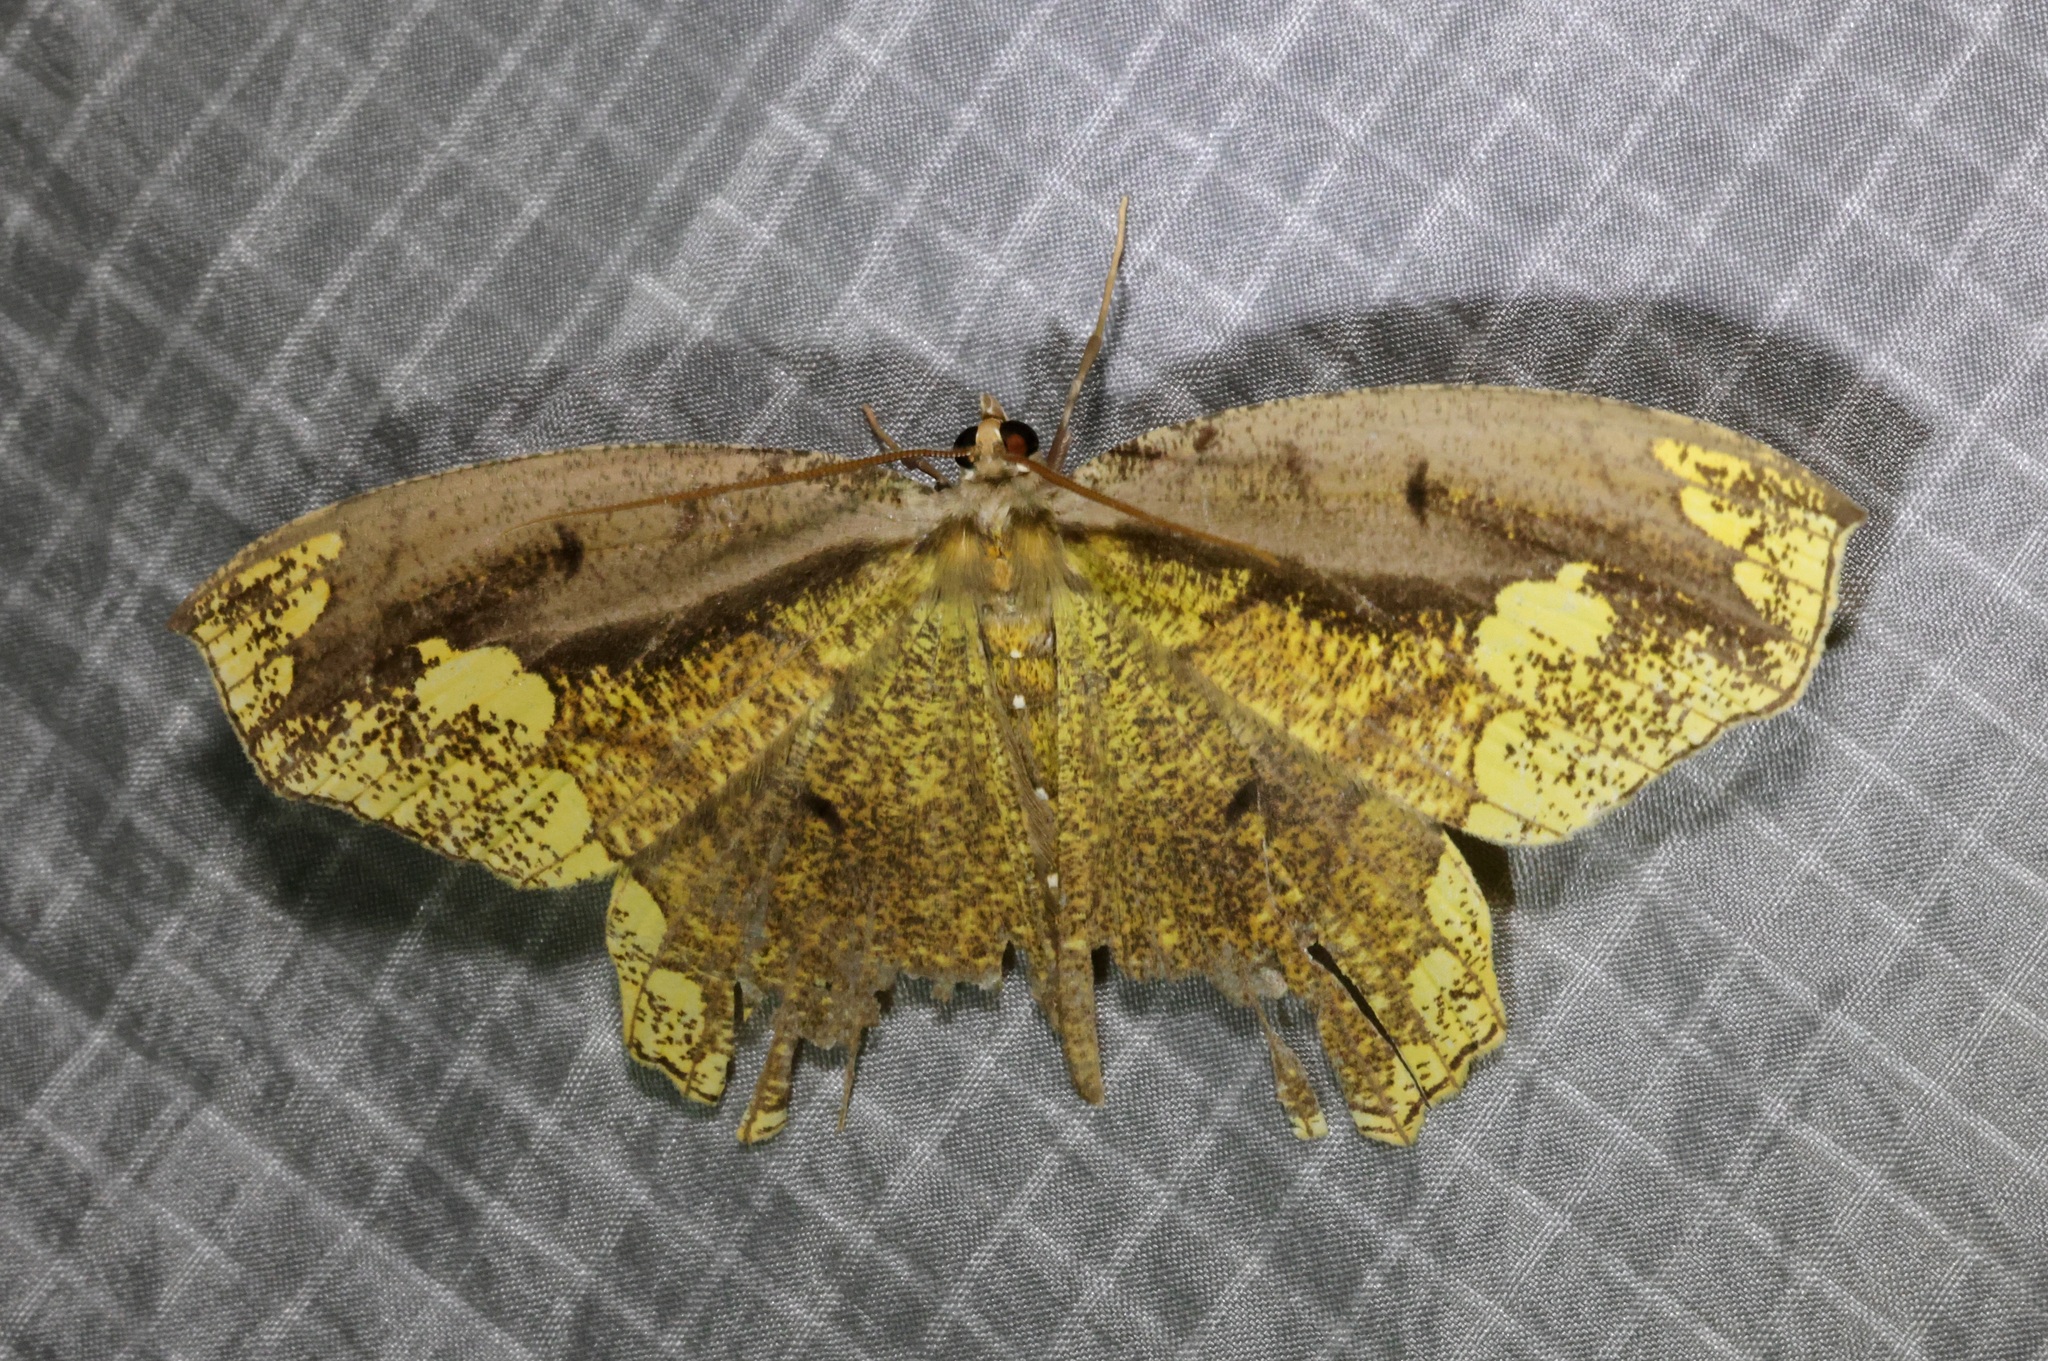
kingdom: Animalia
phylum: Arthropoda
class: Insecta
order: Lepidoptera
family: Geometridae
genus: Pareumelea
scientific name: Pareumelea eugeniata
